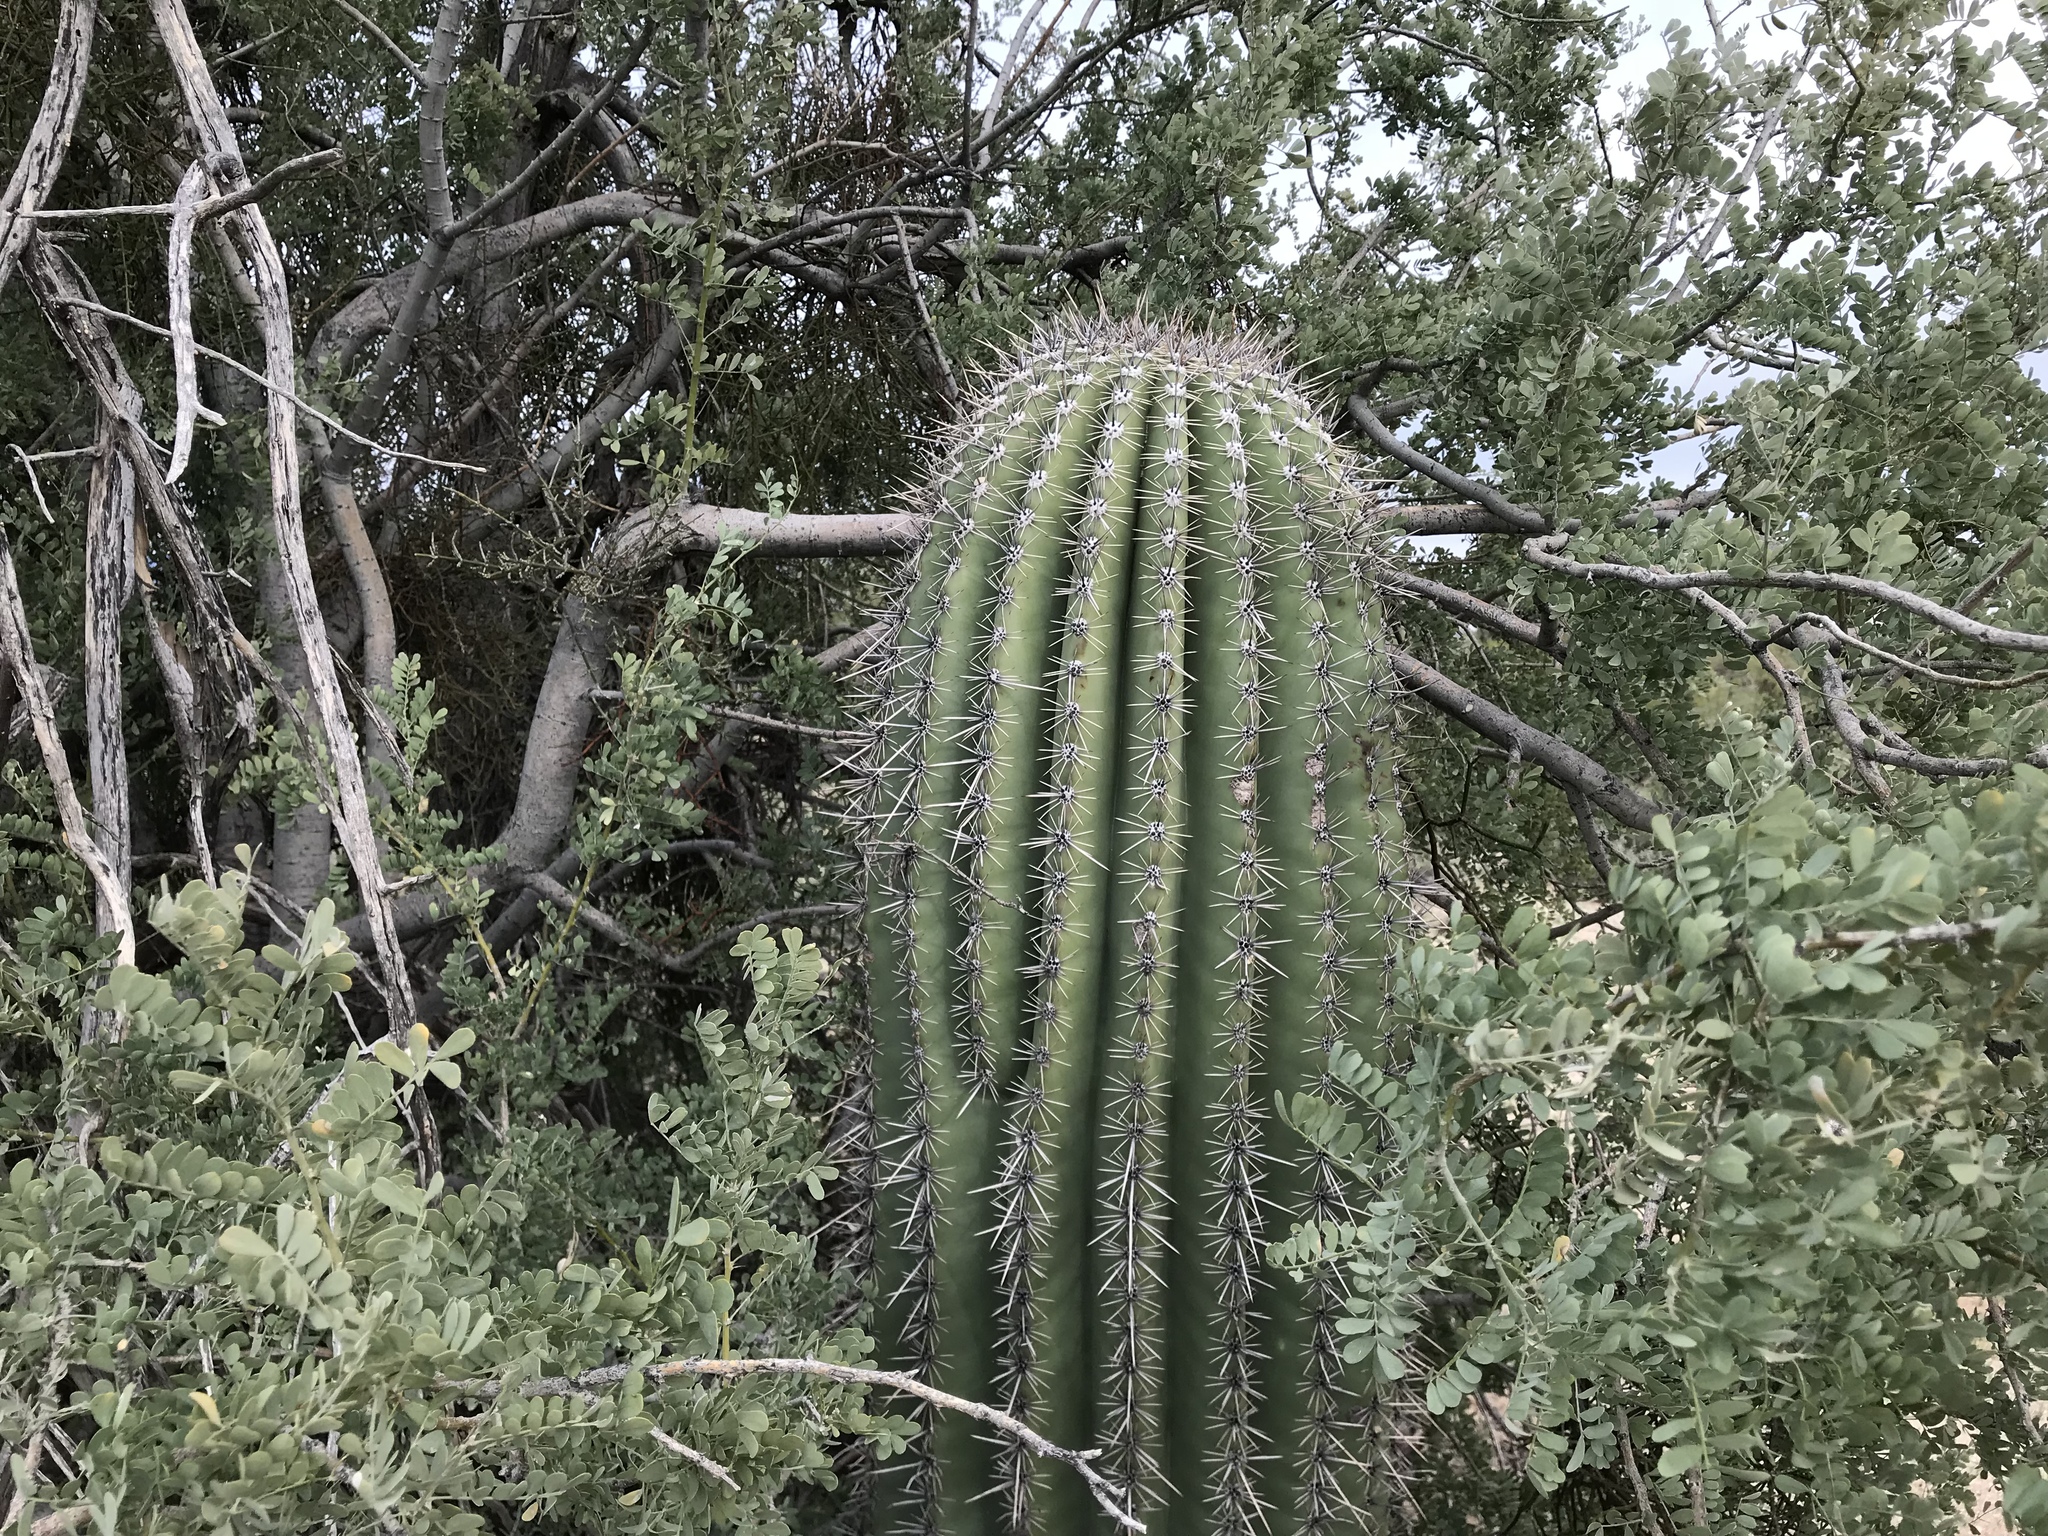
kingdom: Plantae
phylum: Tracheophyta
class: Magnoliopsida
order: Caryophyllales
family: Cactaceae
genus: Carnegiea
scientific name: Carnegiea gigantea
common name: Saguaro
